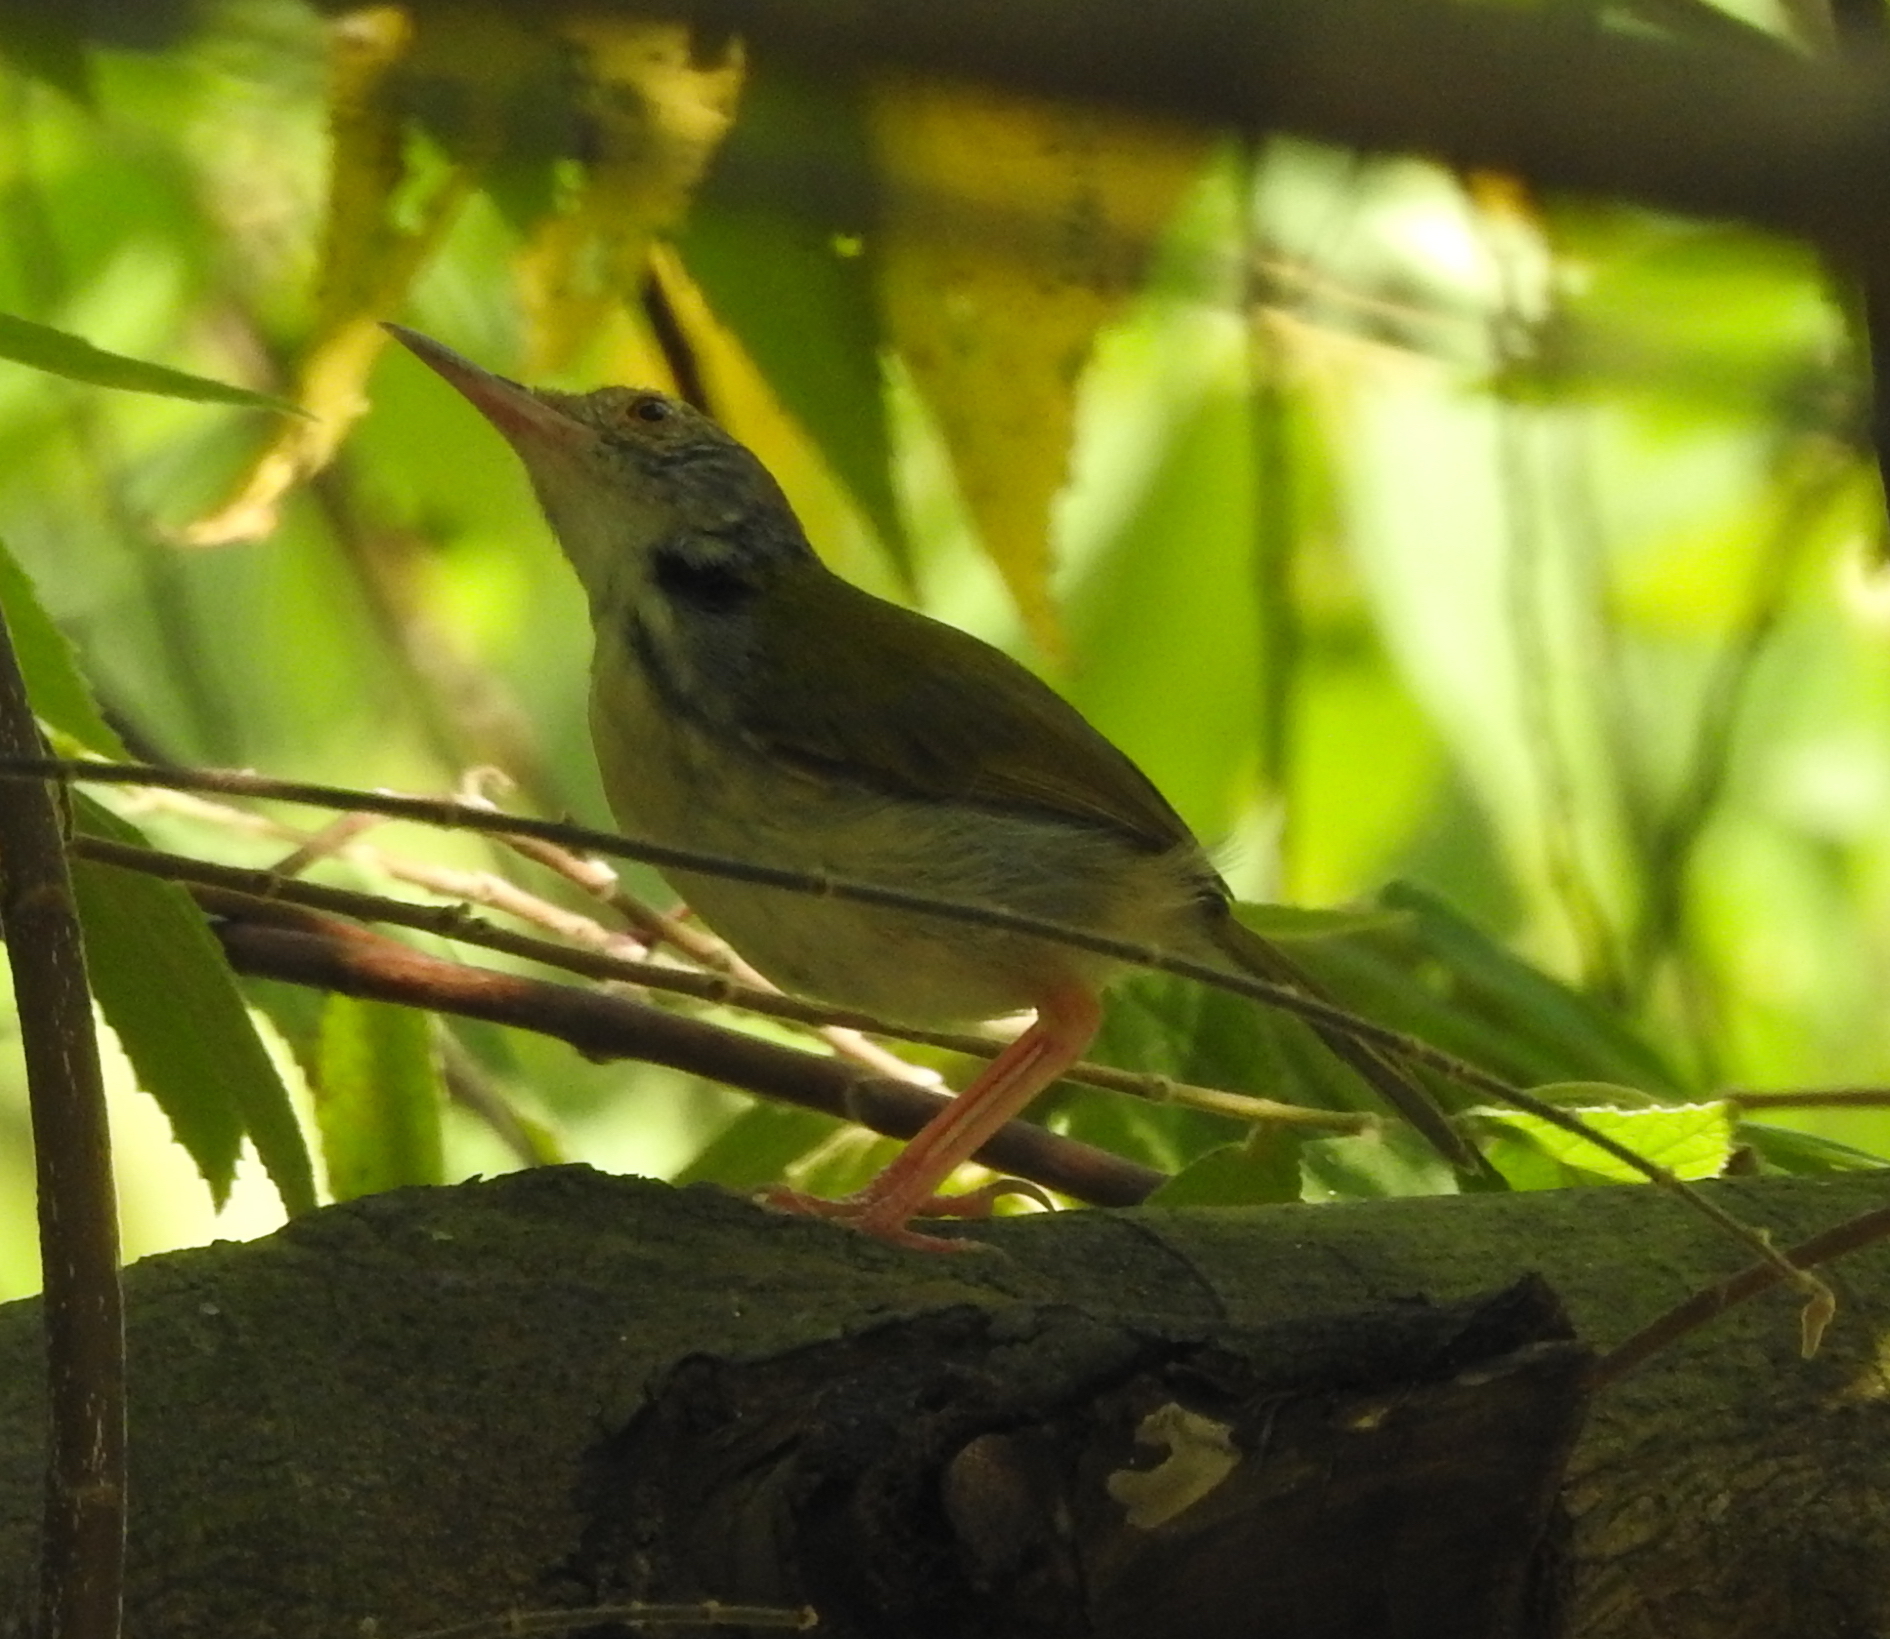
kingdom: Animalia
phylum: Chordata
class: Aves
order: Passeriformes
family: Cisticolidae
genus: Orthotomus
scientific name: Orthotomus sutorius
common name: Common tailorbird
